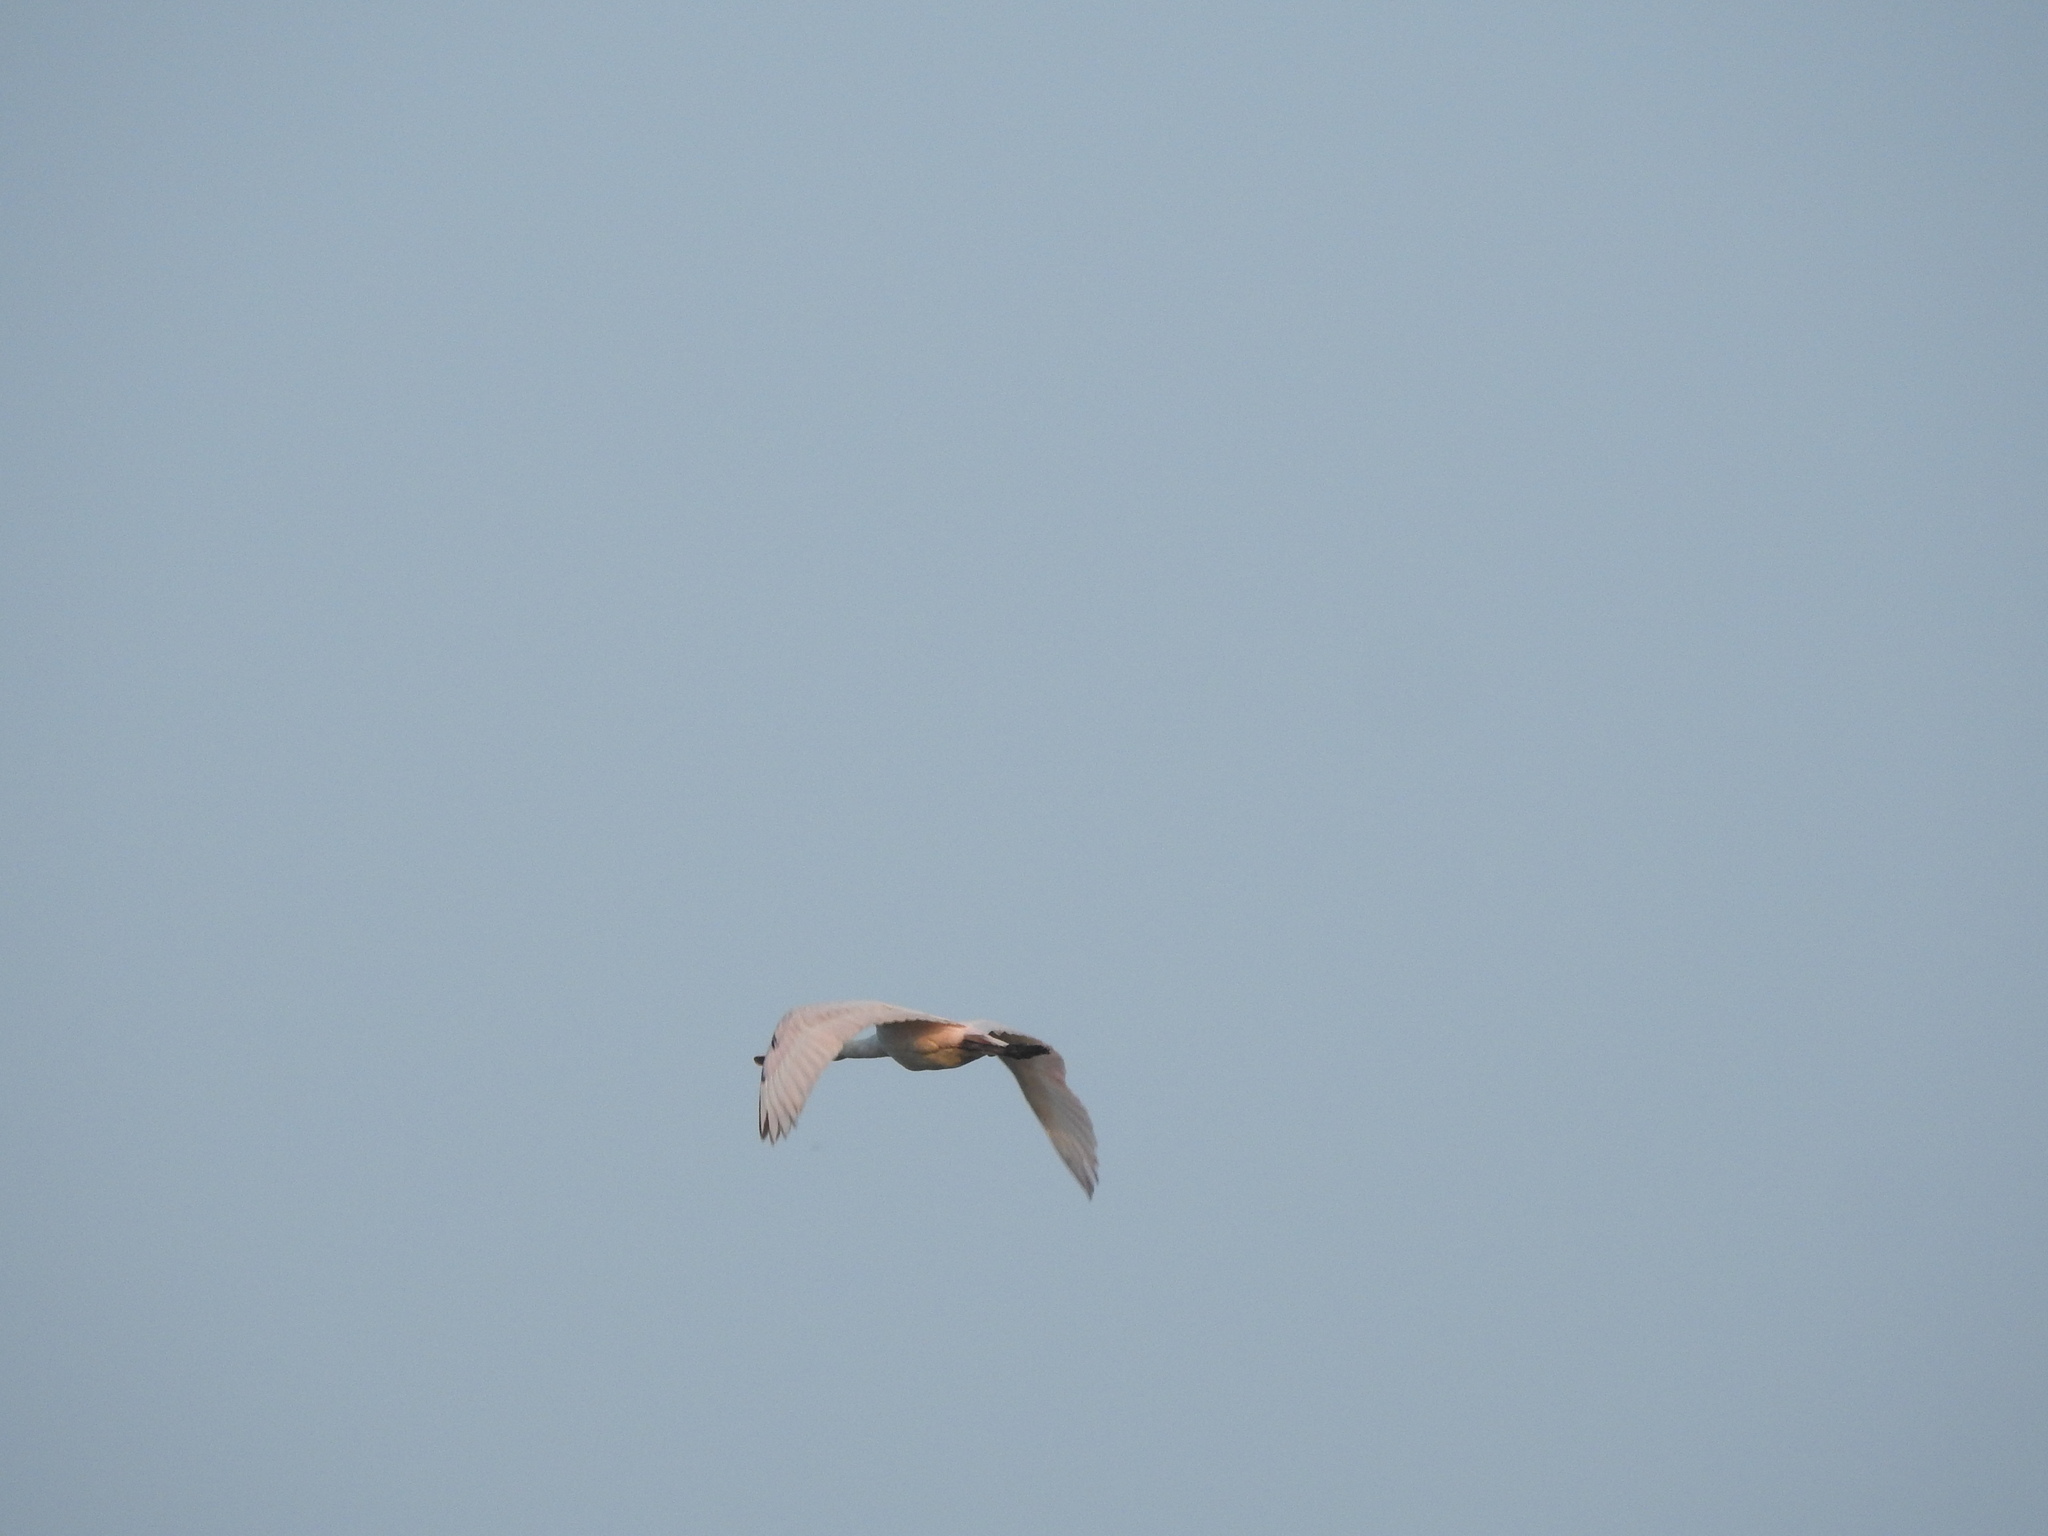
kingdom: Animalia
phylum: Chordata
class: Aves
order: Pelecaniformes
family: Threskiornithidae
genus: Platalea
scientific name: Platalea ajaja
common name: Roseate spoonbill
